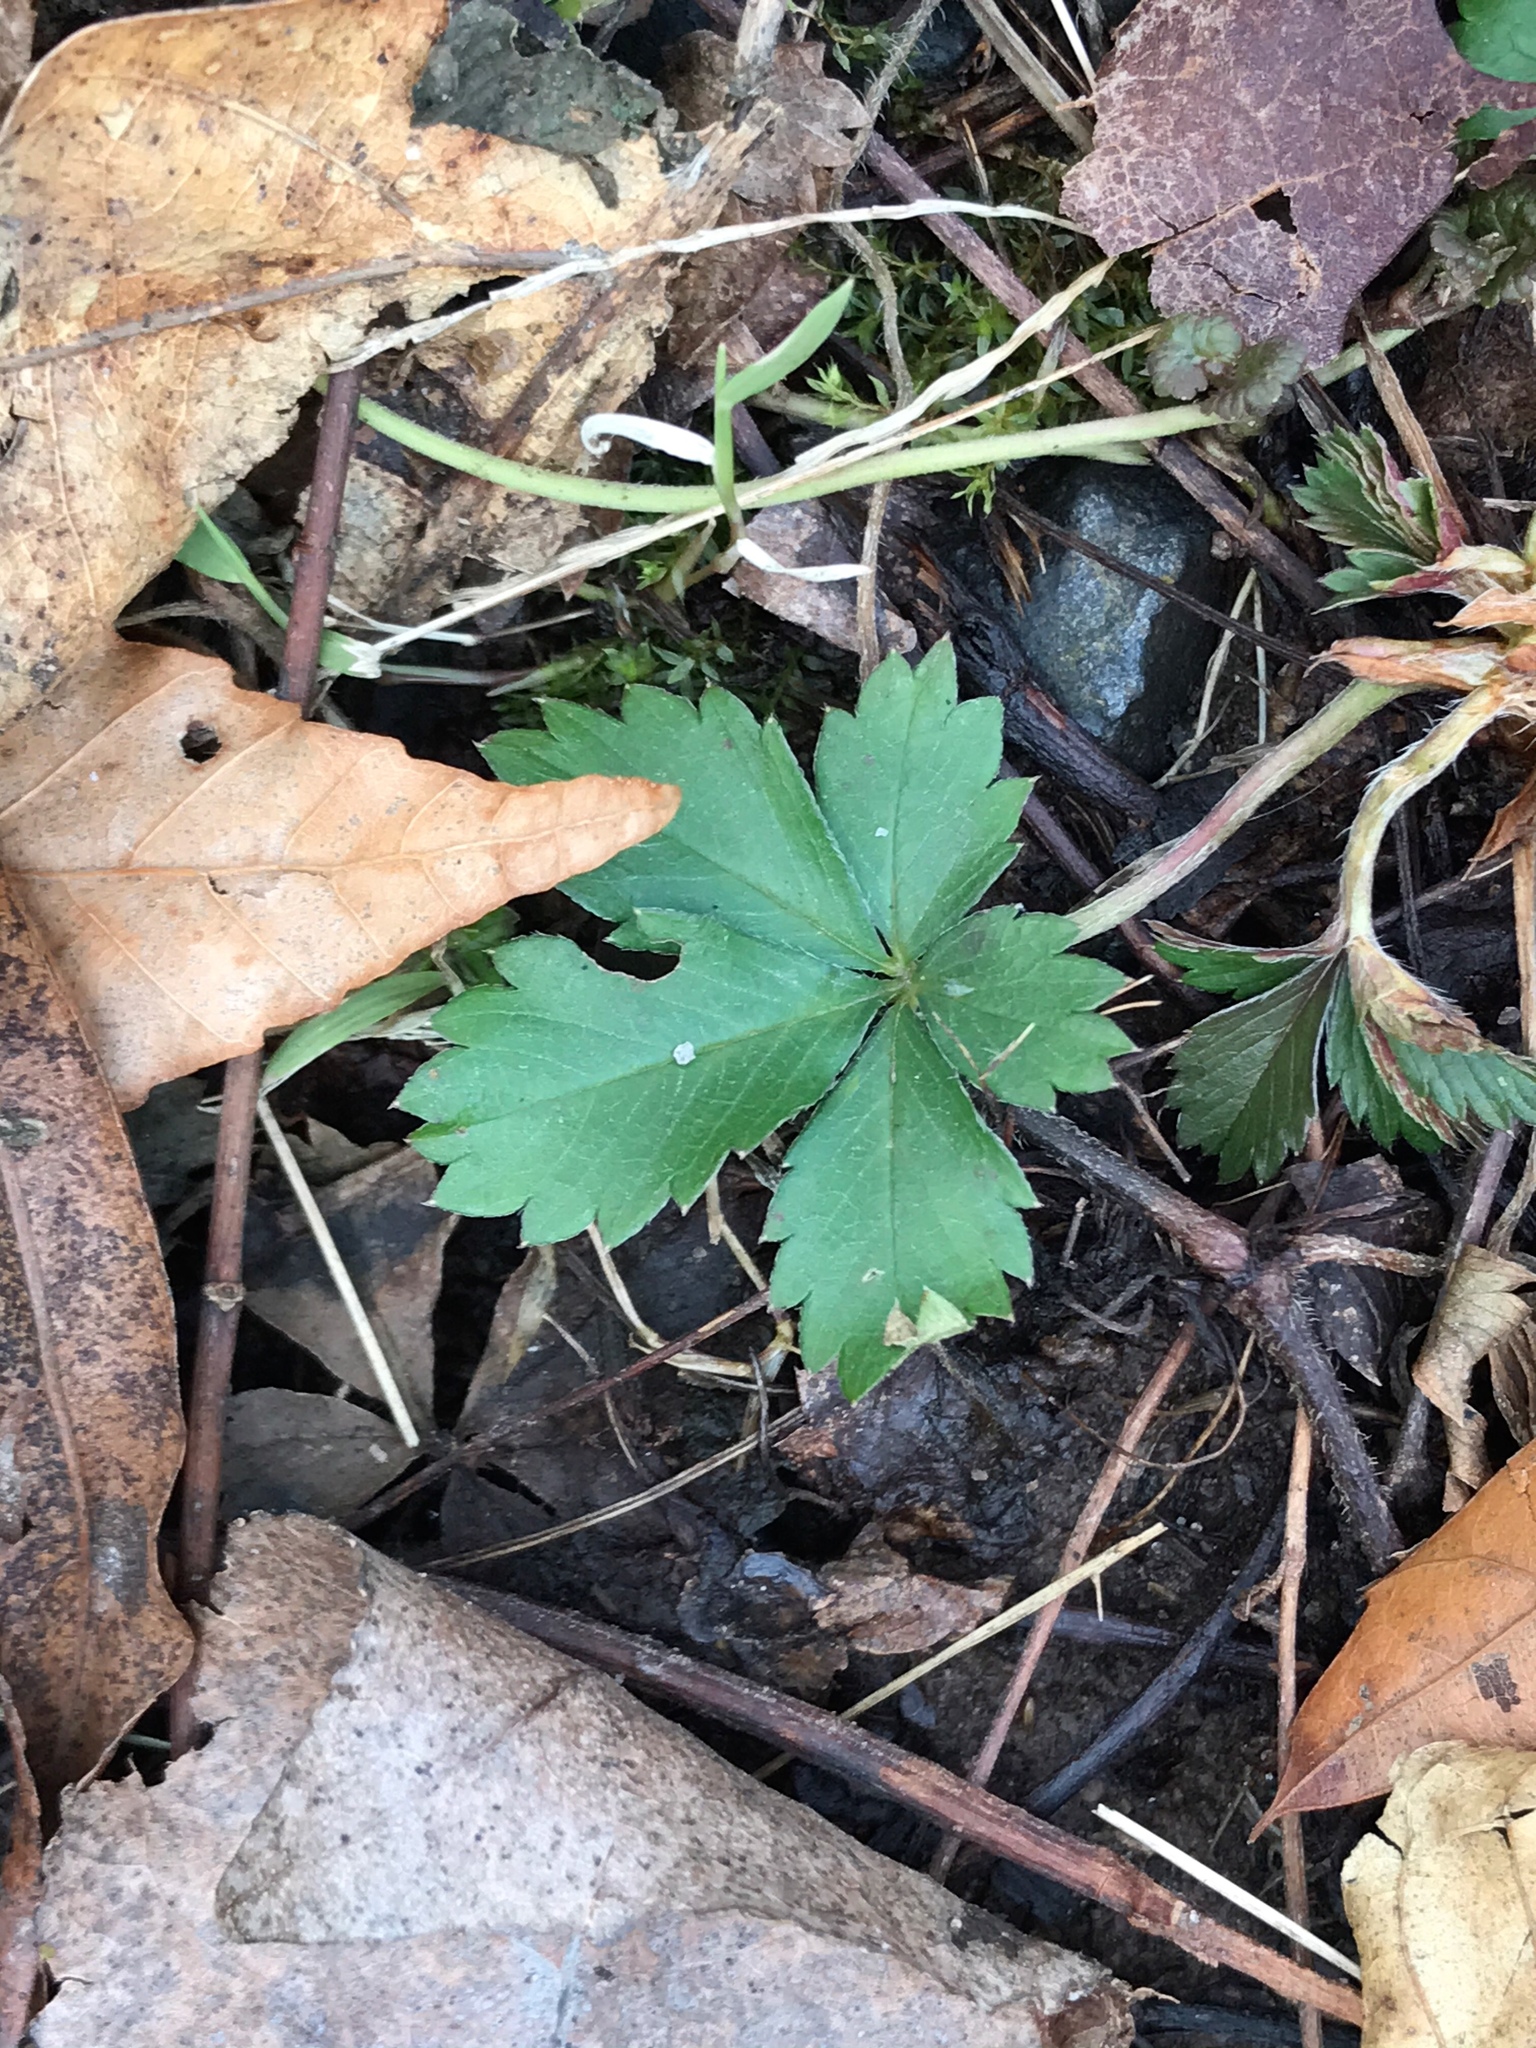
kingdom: Plantae
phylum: Tracheophyta
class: Magnoliopsida
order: Rosales
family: Rosaceae
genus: Potentilla
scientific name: Potentilla canadensis
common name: Canada cinquefoil
